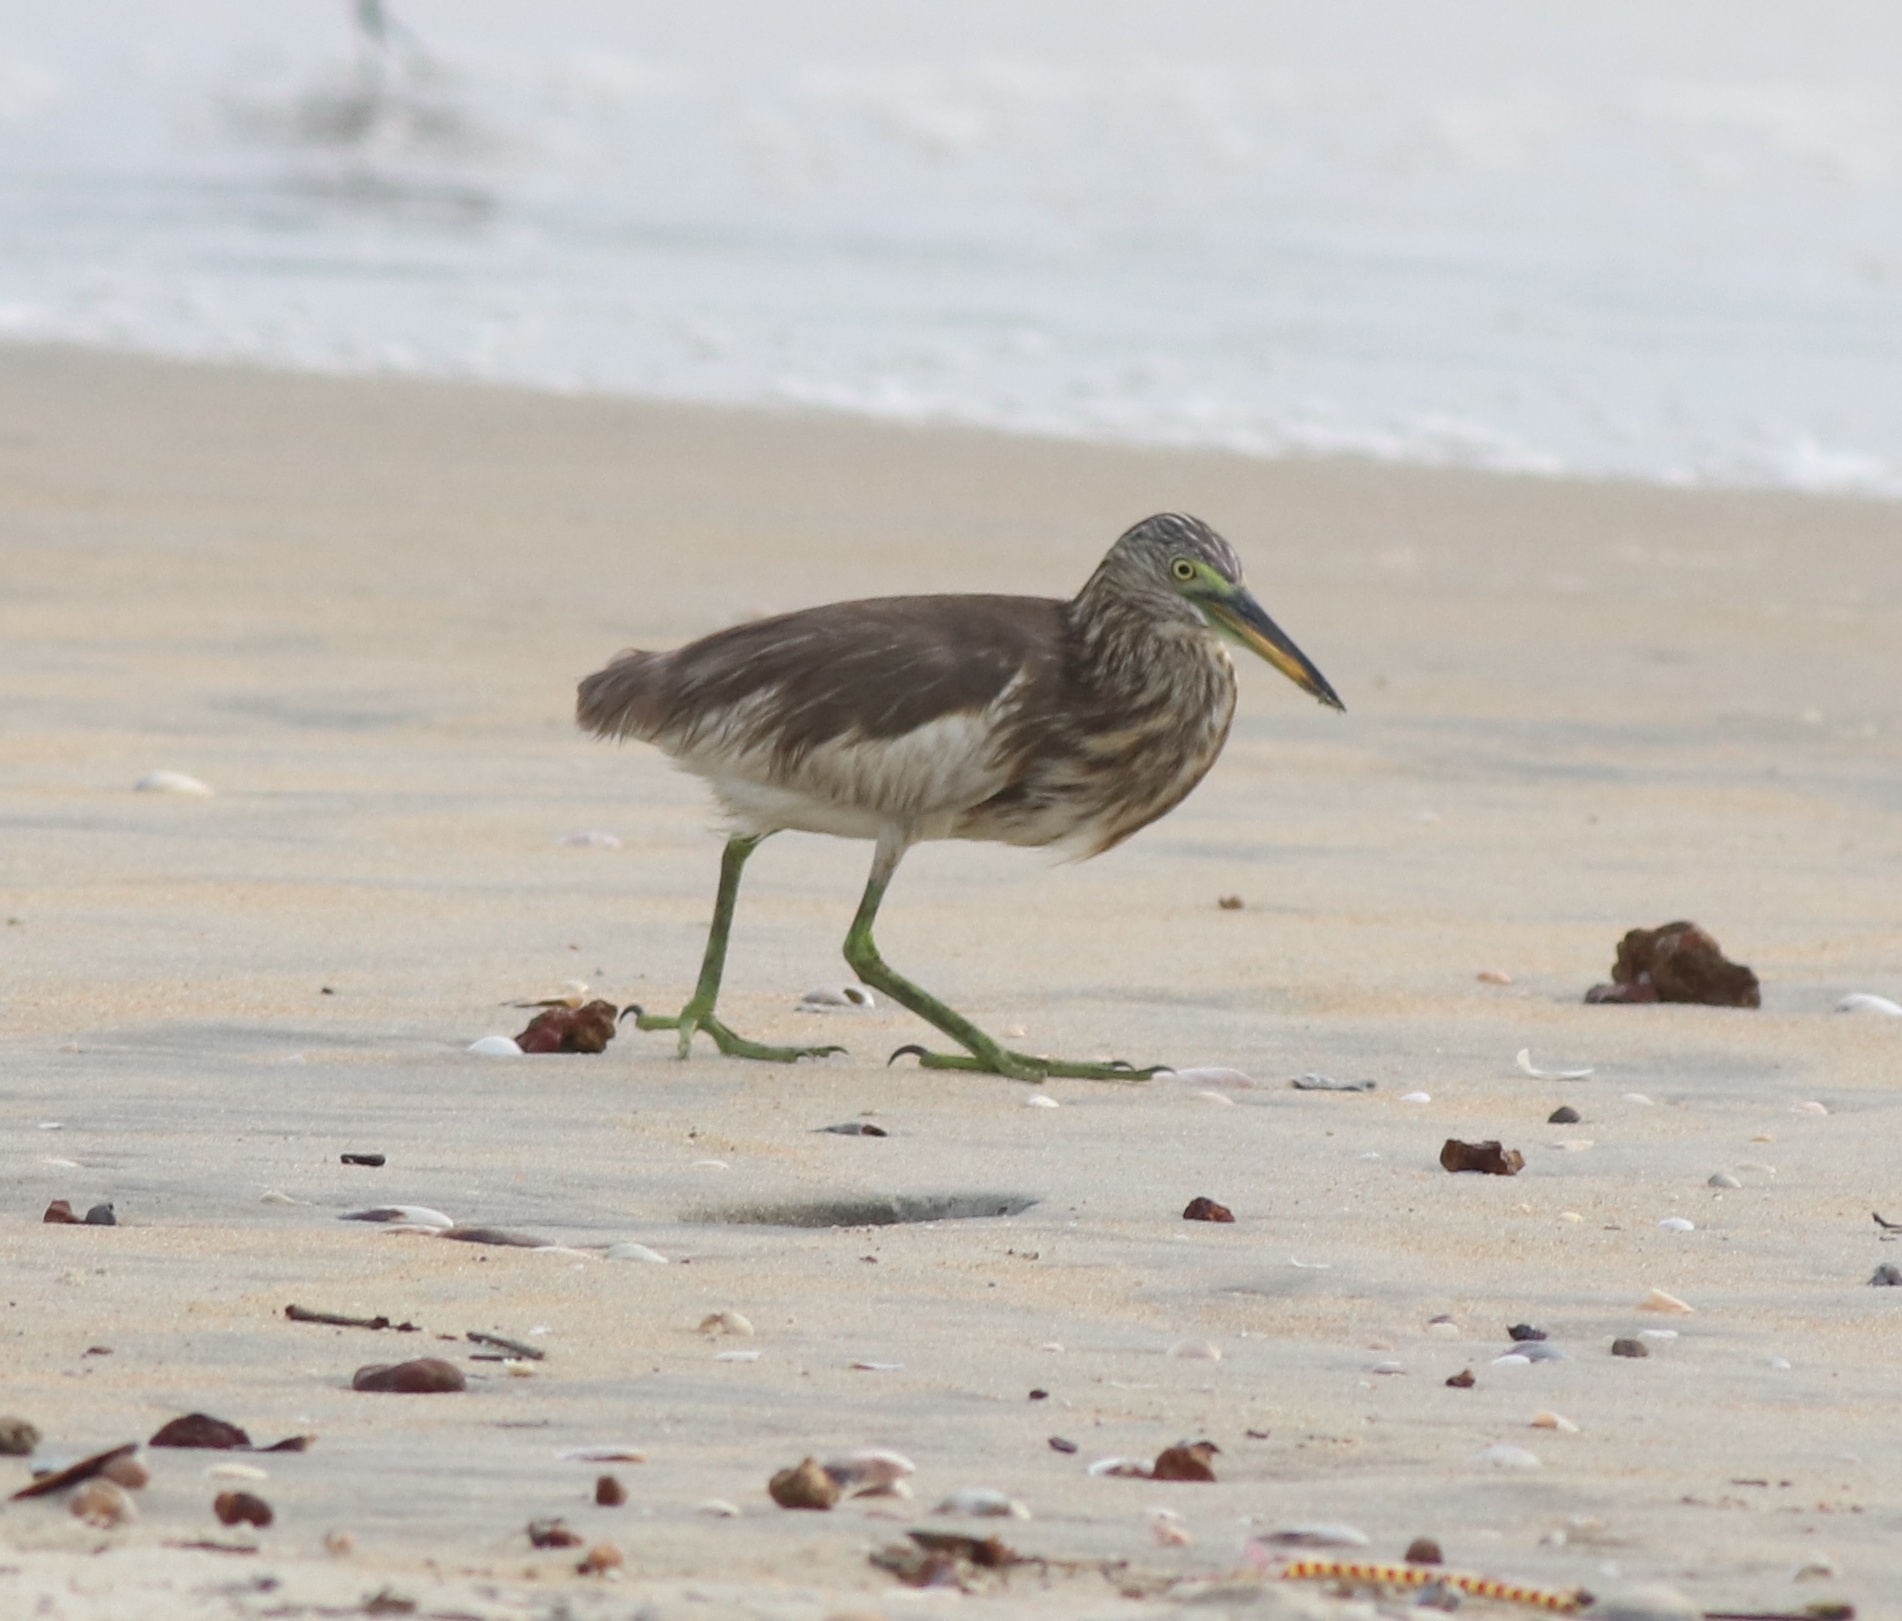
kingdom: Animalia
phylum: Chordata
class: Aves
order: Pelecaniformes
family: Ardeidae
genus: Ardeola
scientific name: Ardeola grayii
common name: Indian pond heron
